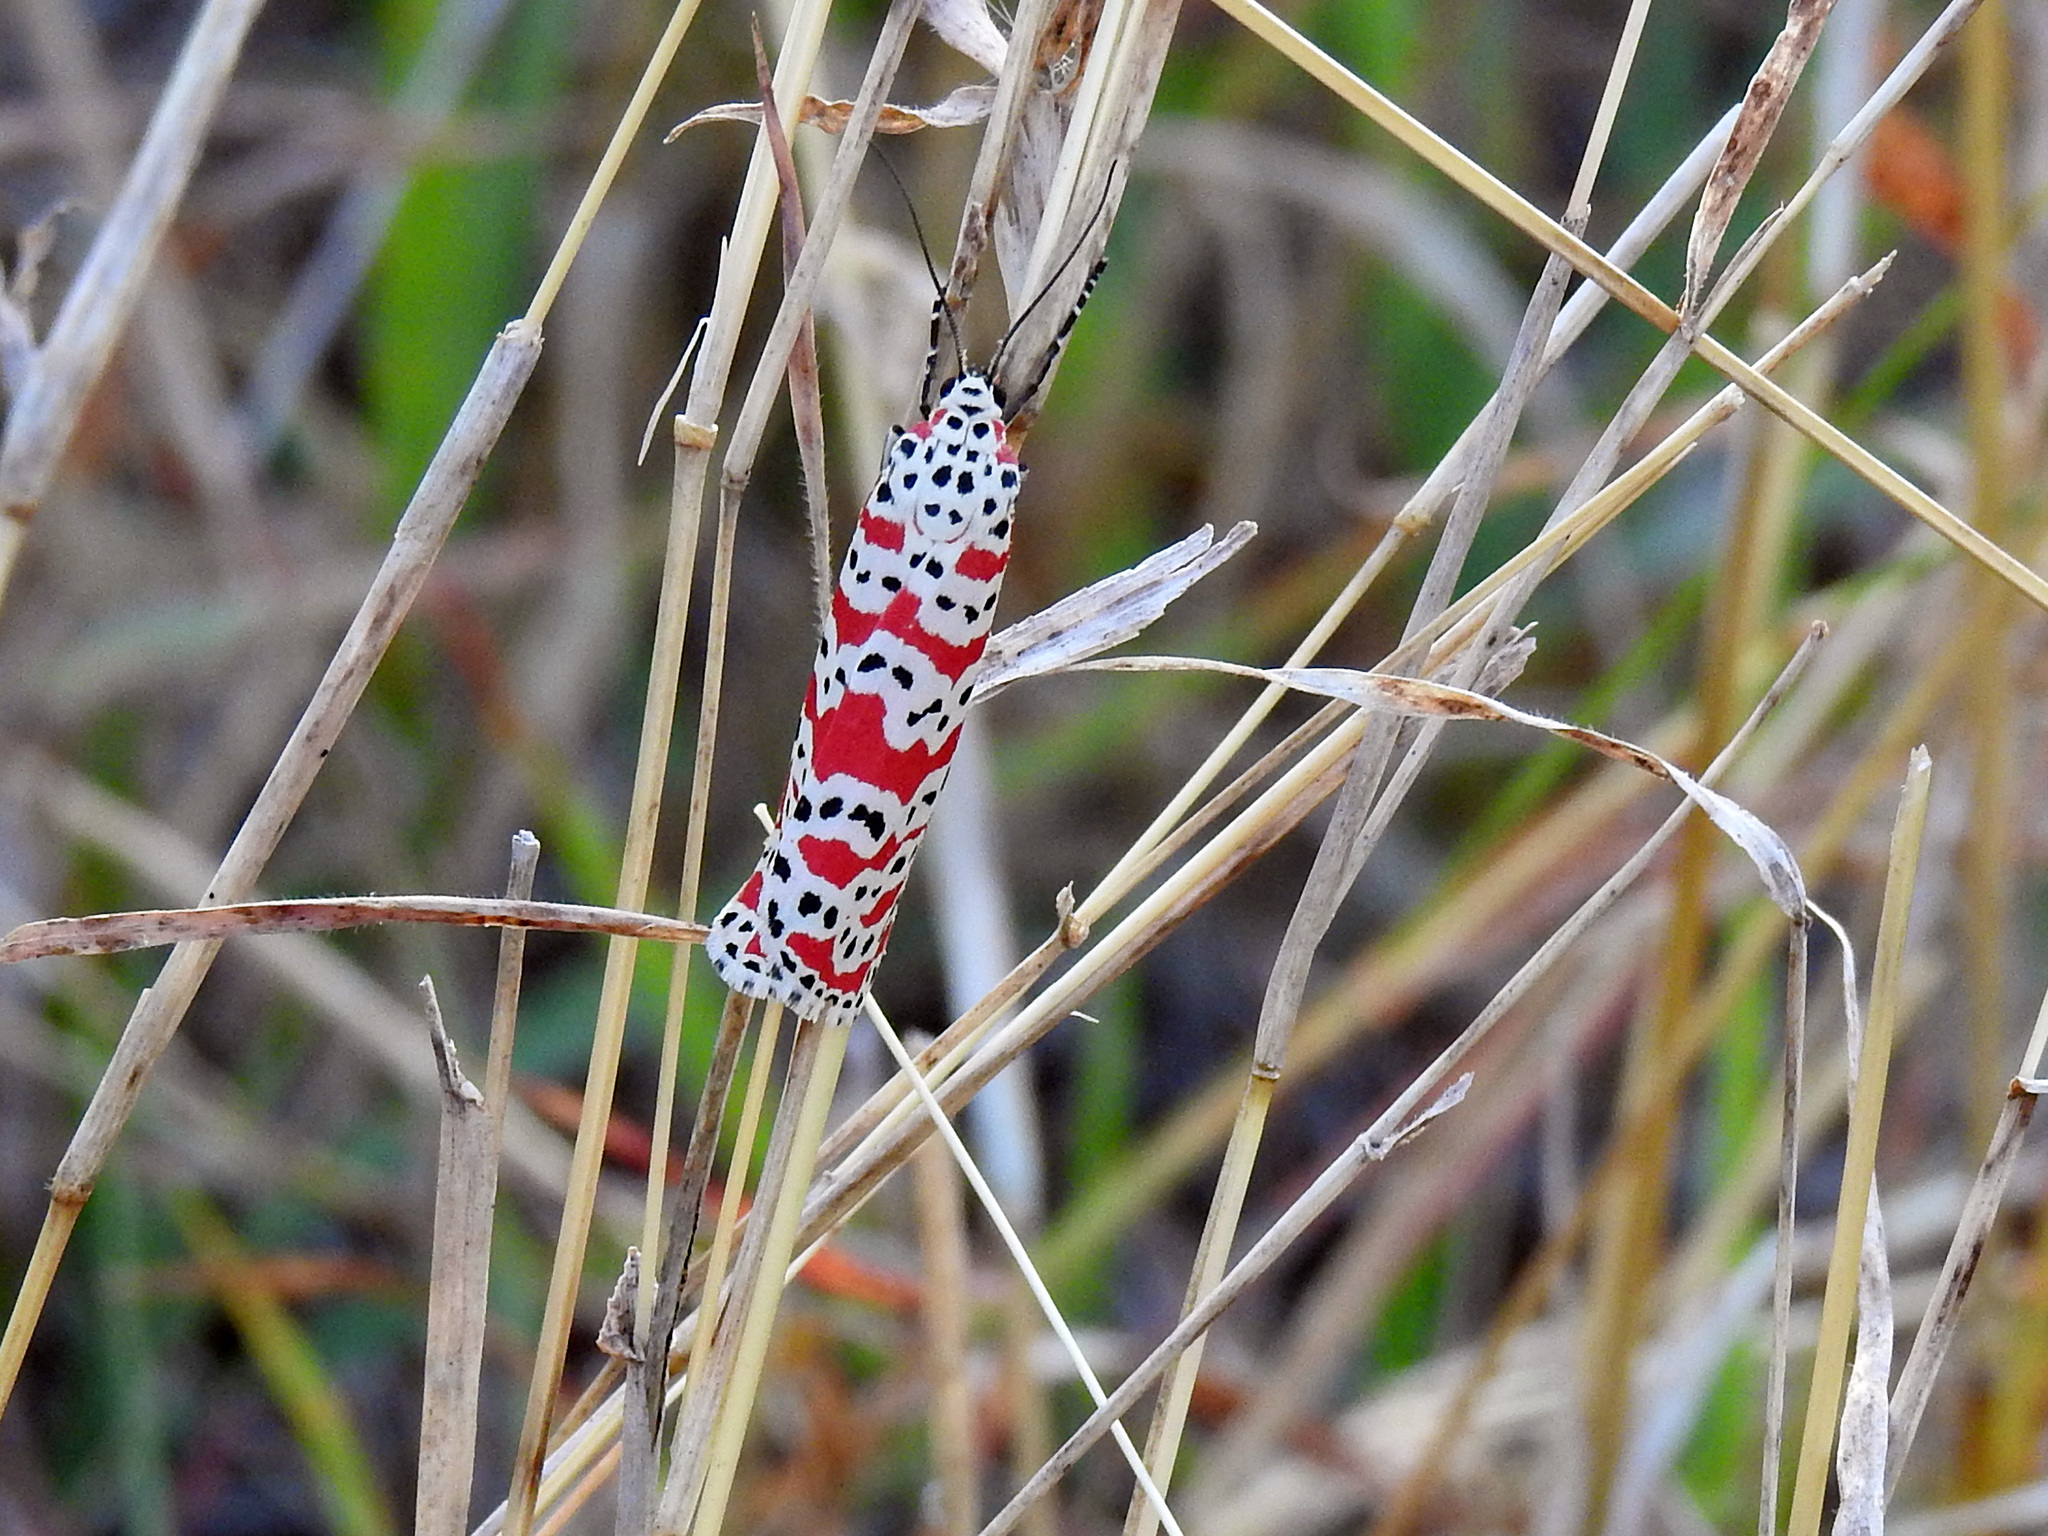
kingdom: Animalia
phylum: Arthropoda
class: Insecta
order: Lepidoptera
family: Erebidae
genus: Utetheisa
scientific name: Utetheisa ornatrix
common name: Beautiful utetheisa
